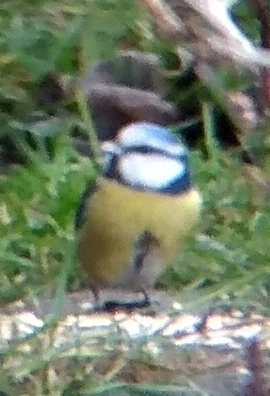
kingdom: Animalia
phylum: Chordata
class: Aves
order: Passeriformes
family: Paridae
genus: Cyanistes
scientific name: Cyanistes caeruleus
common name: Eurasian blue tit
